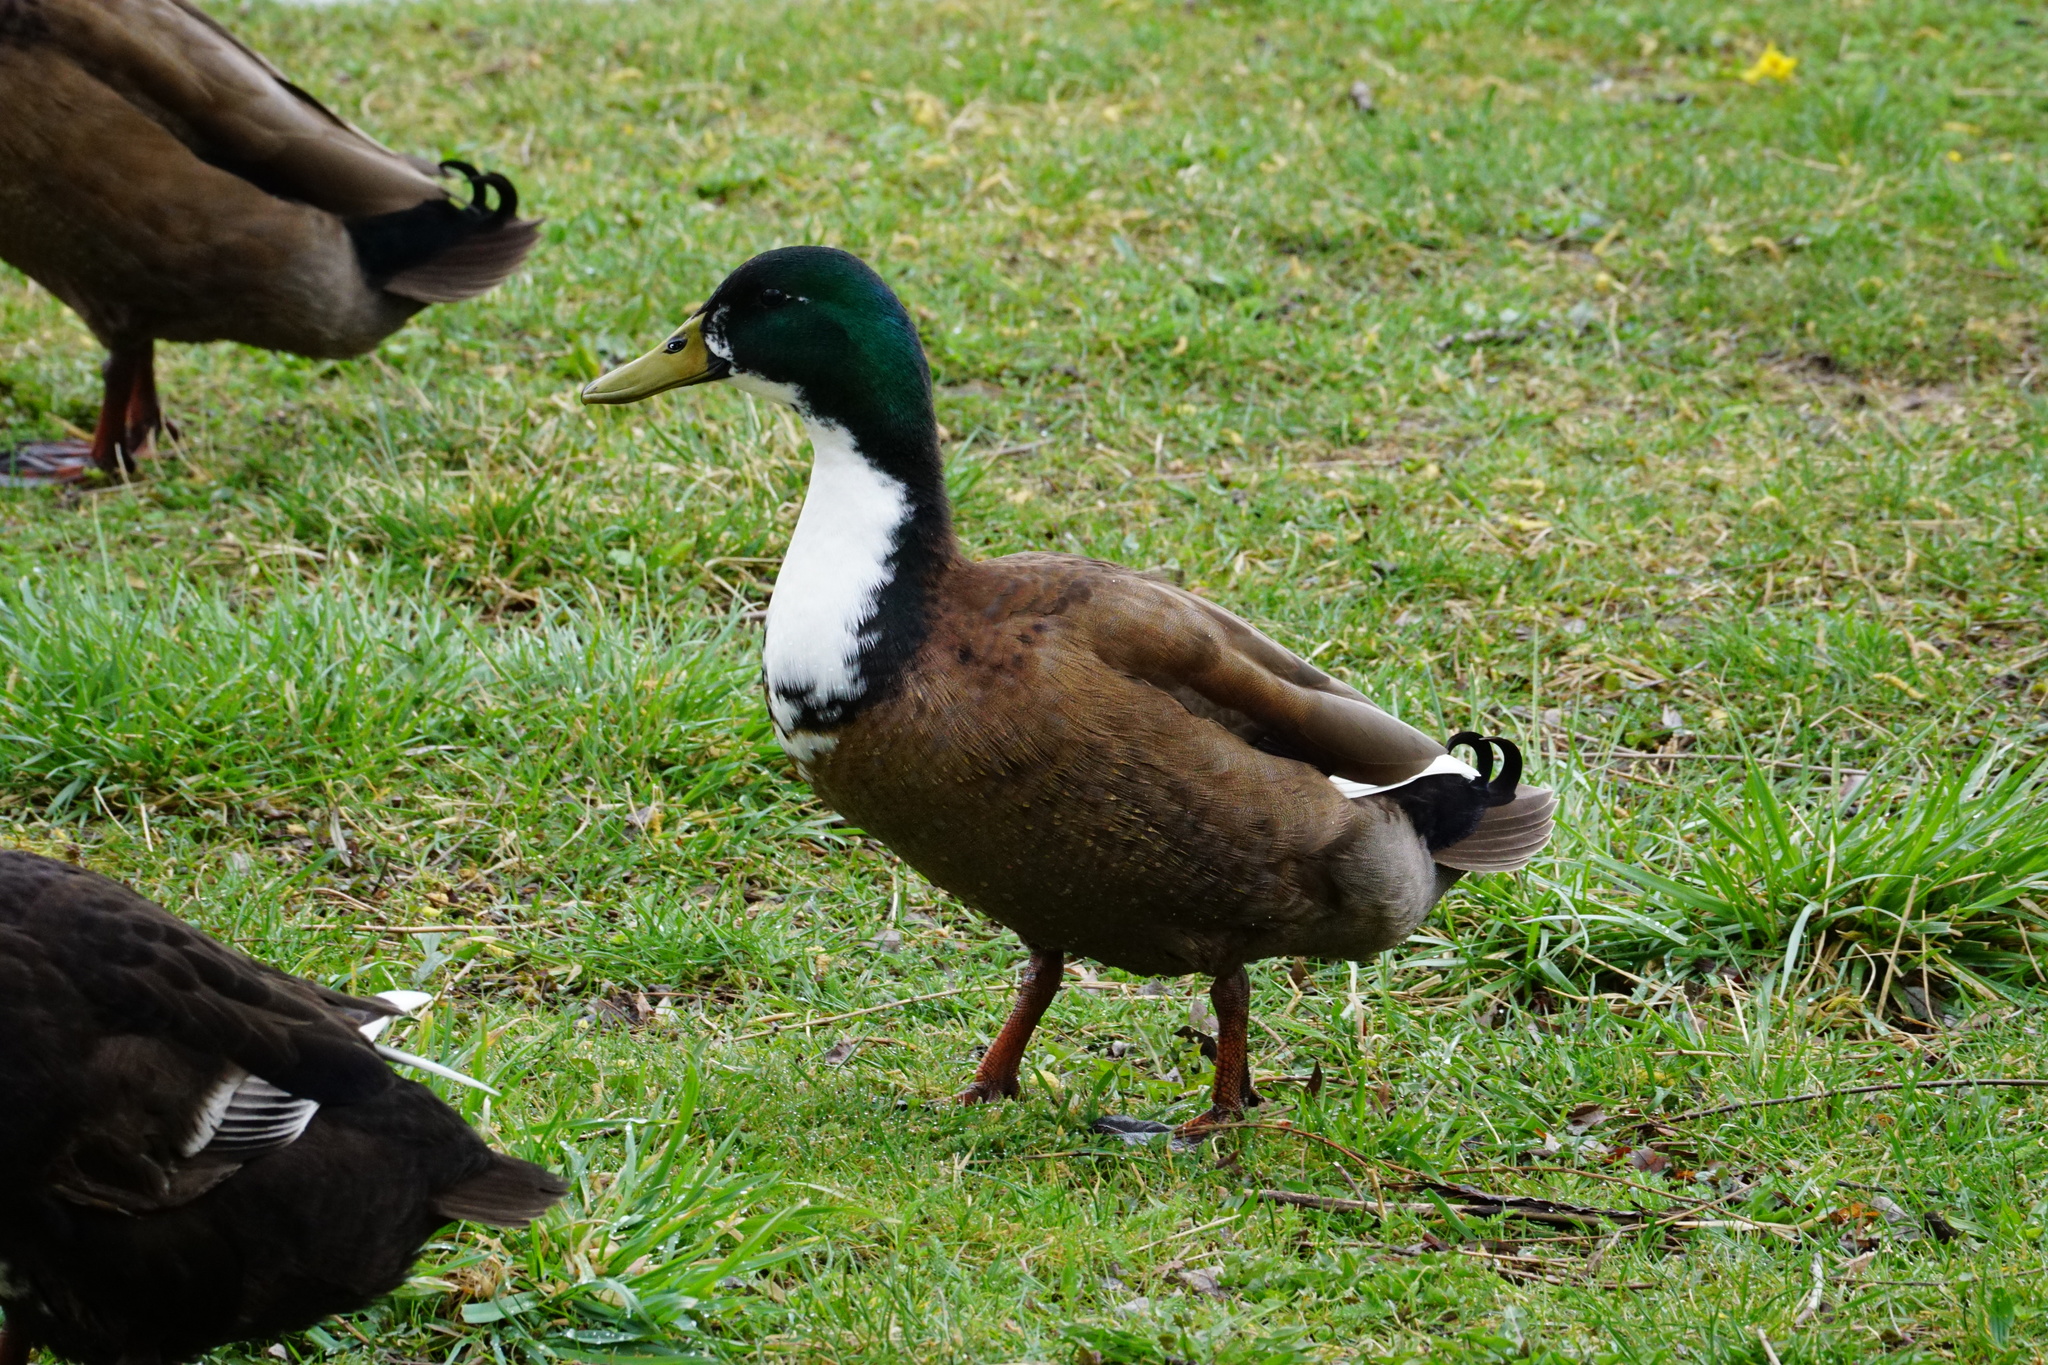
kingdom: Animalia
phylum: Chordata
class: Aves
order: Anseriformes
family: Anatidae
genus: Anas
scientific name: Anas platyrhynchos
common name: Mallard
